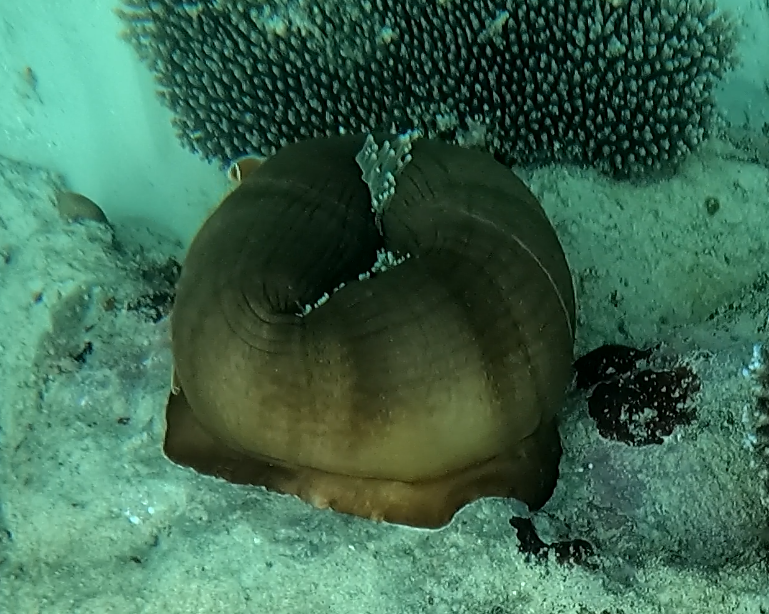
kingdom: Animalia
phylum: Cnidaria
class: Anthozoa
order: Actiniaria
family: Stichodactylidae
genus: Radianthus
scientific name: Radianthus magnifica
